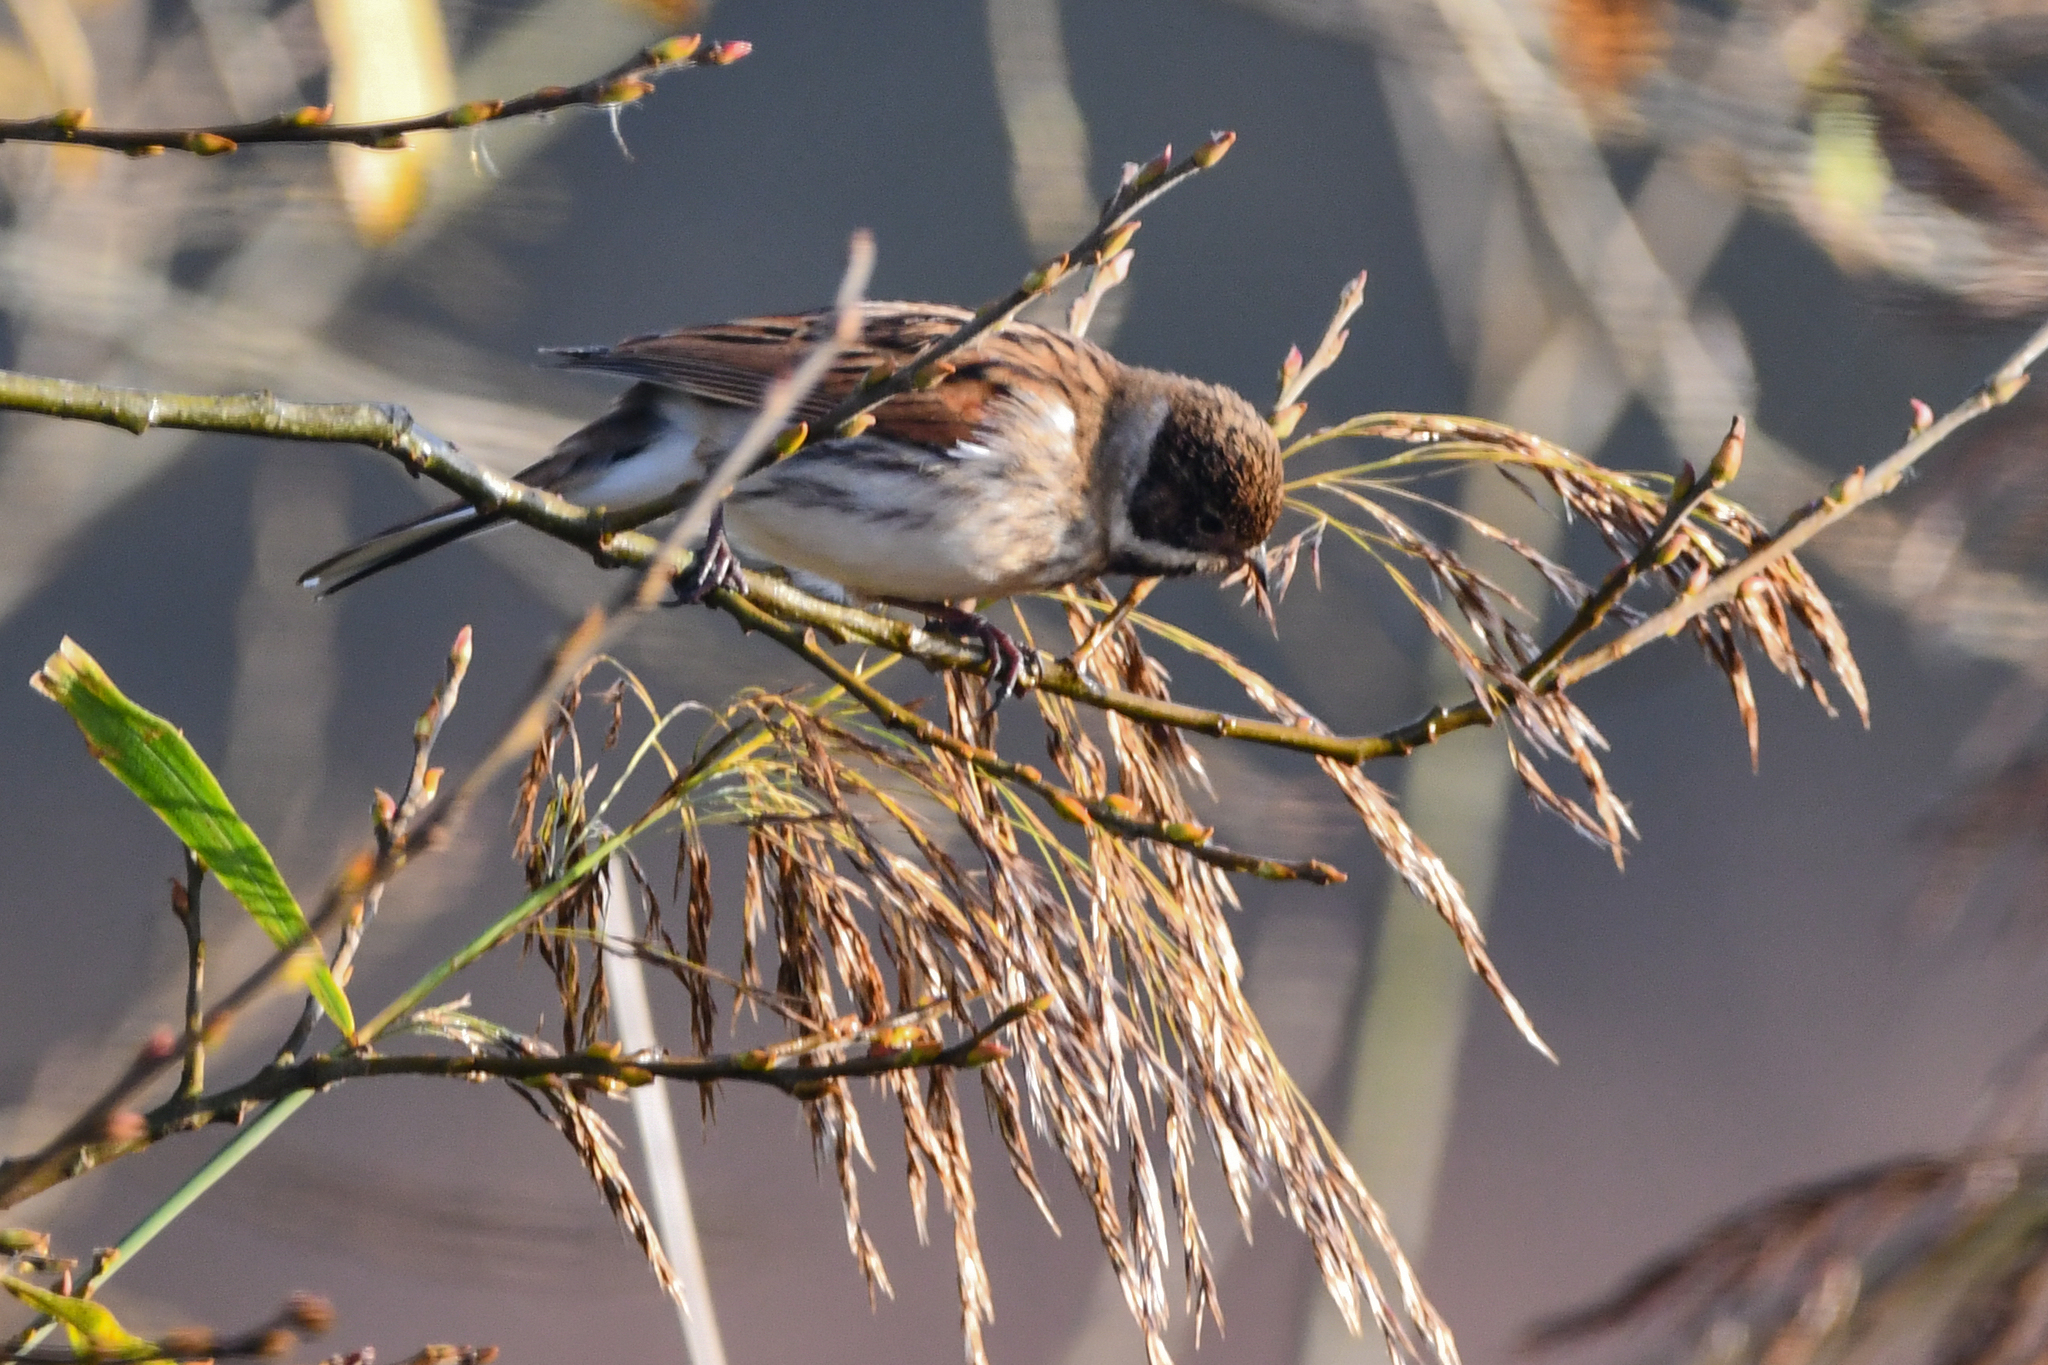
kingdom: Animalia
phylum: Chordata
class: Aves
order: Passeriformes
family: Emberizidae
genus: Emberiza
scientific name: Emberiza schoeniclus
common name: Reed bunting
